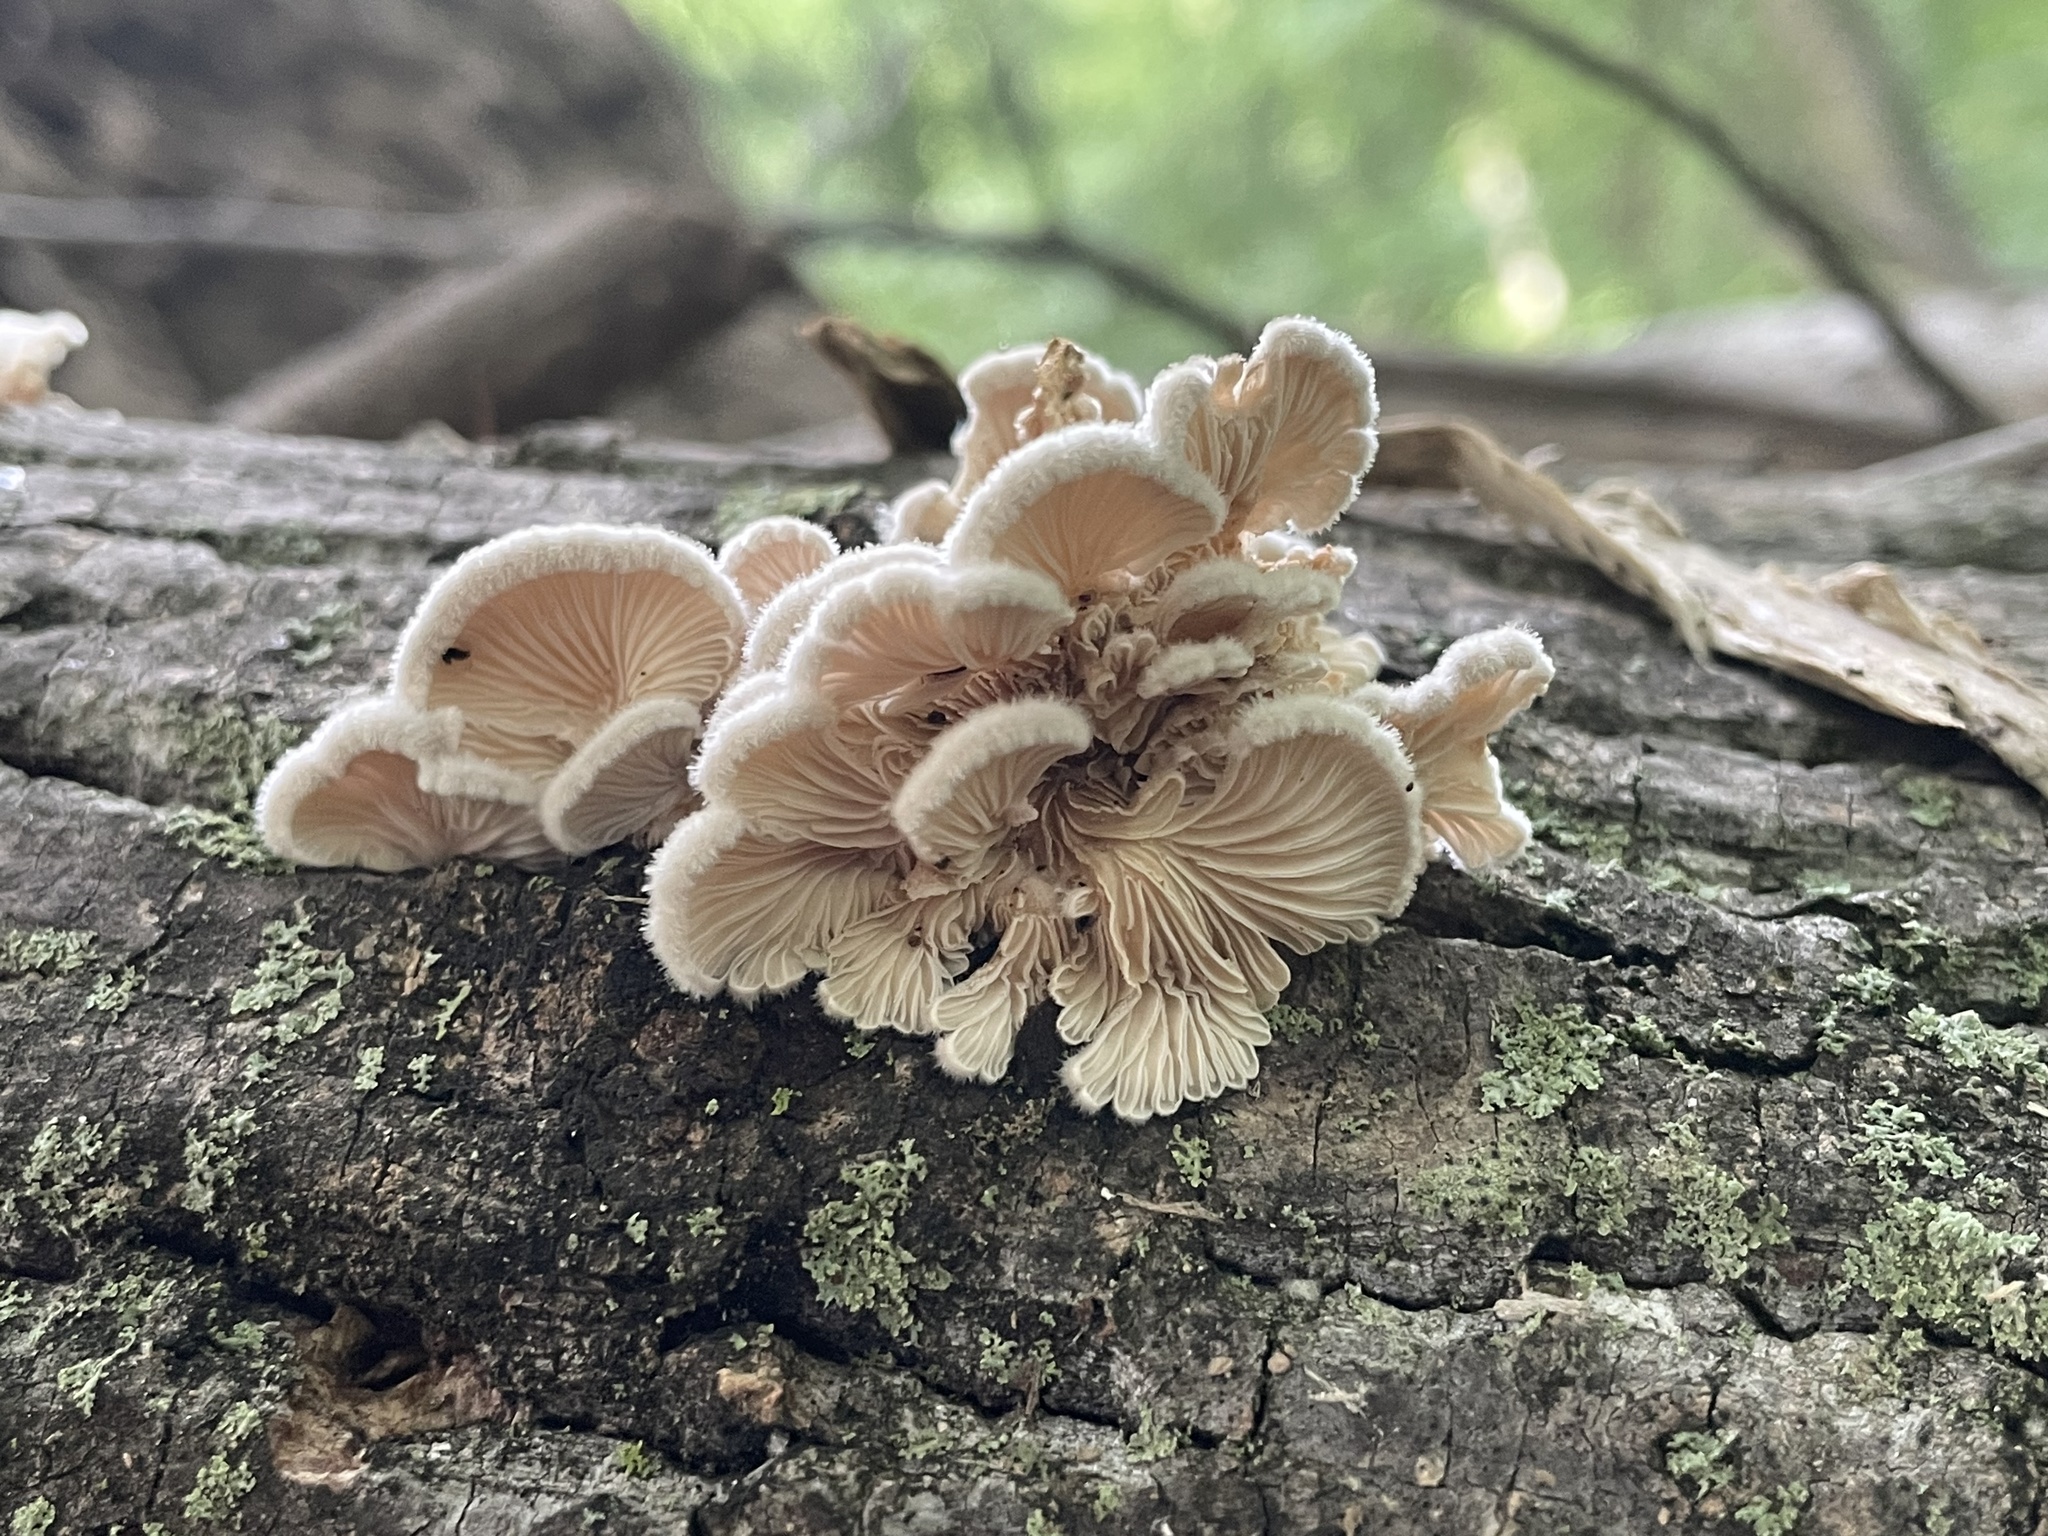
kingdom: Fungi
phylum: Basidiomycota
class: Agaricomycetes
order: Agaricales
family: Schizophyllaceae
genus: Schizophyllum
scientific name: Schizophyllum commune
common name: Common porecrust
